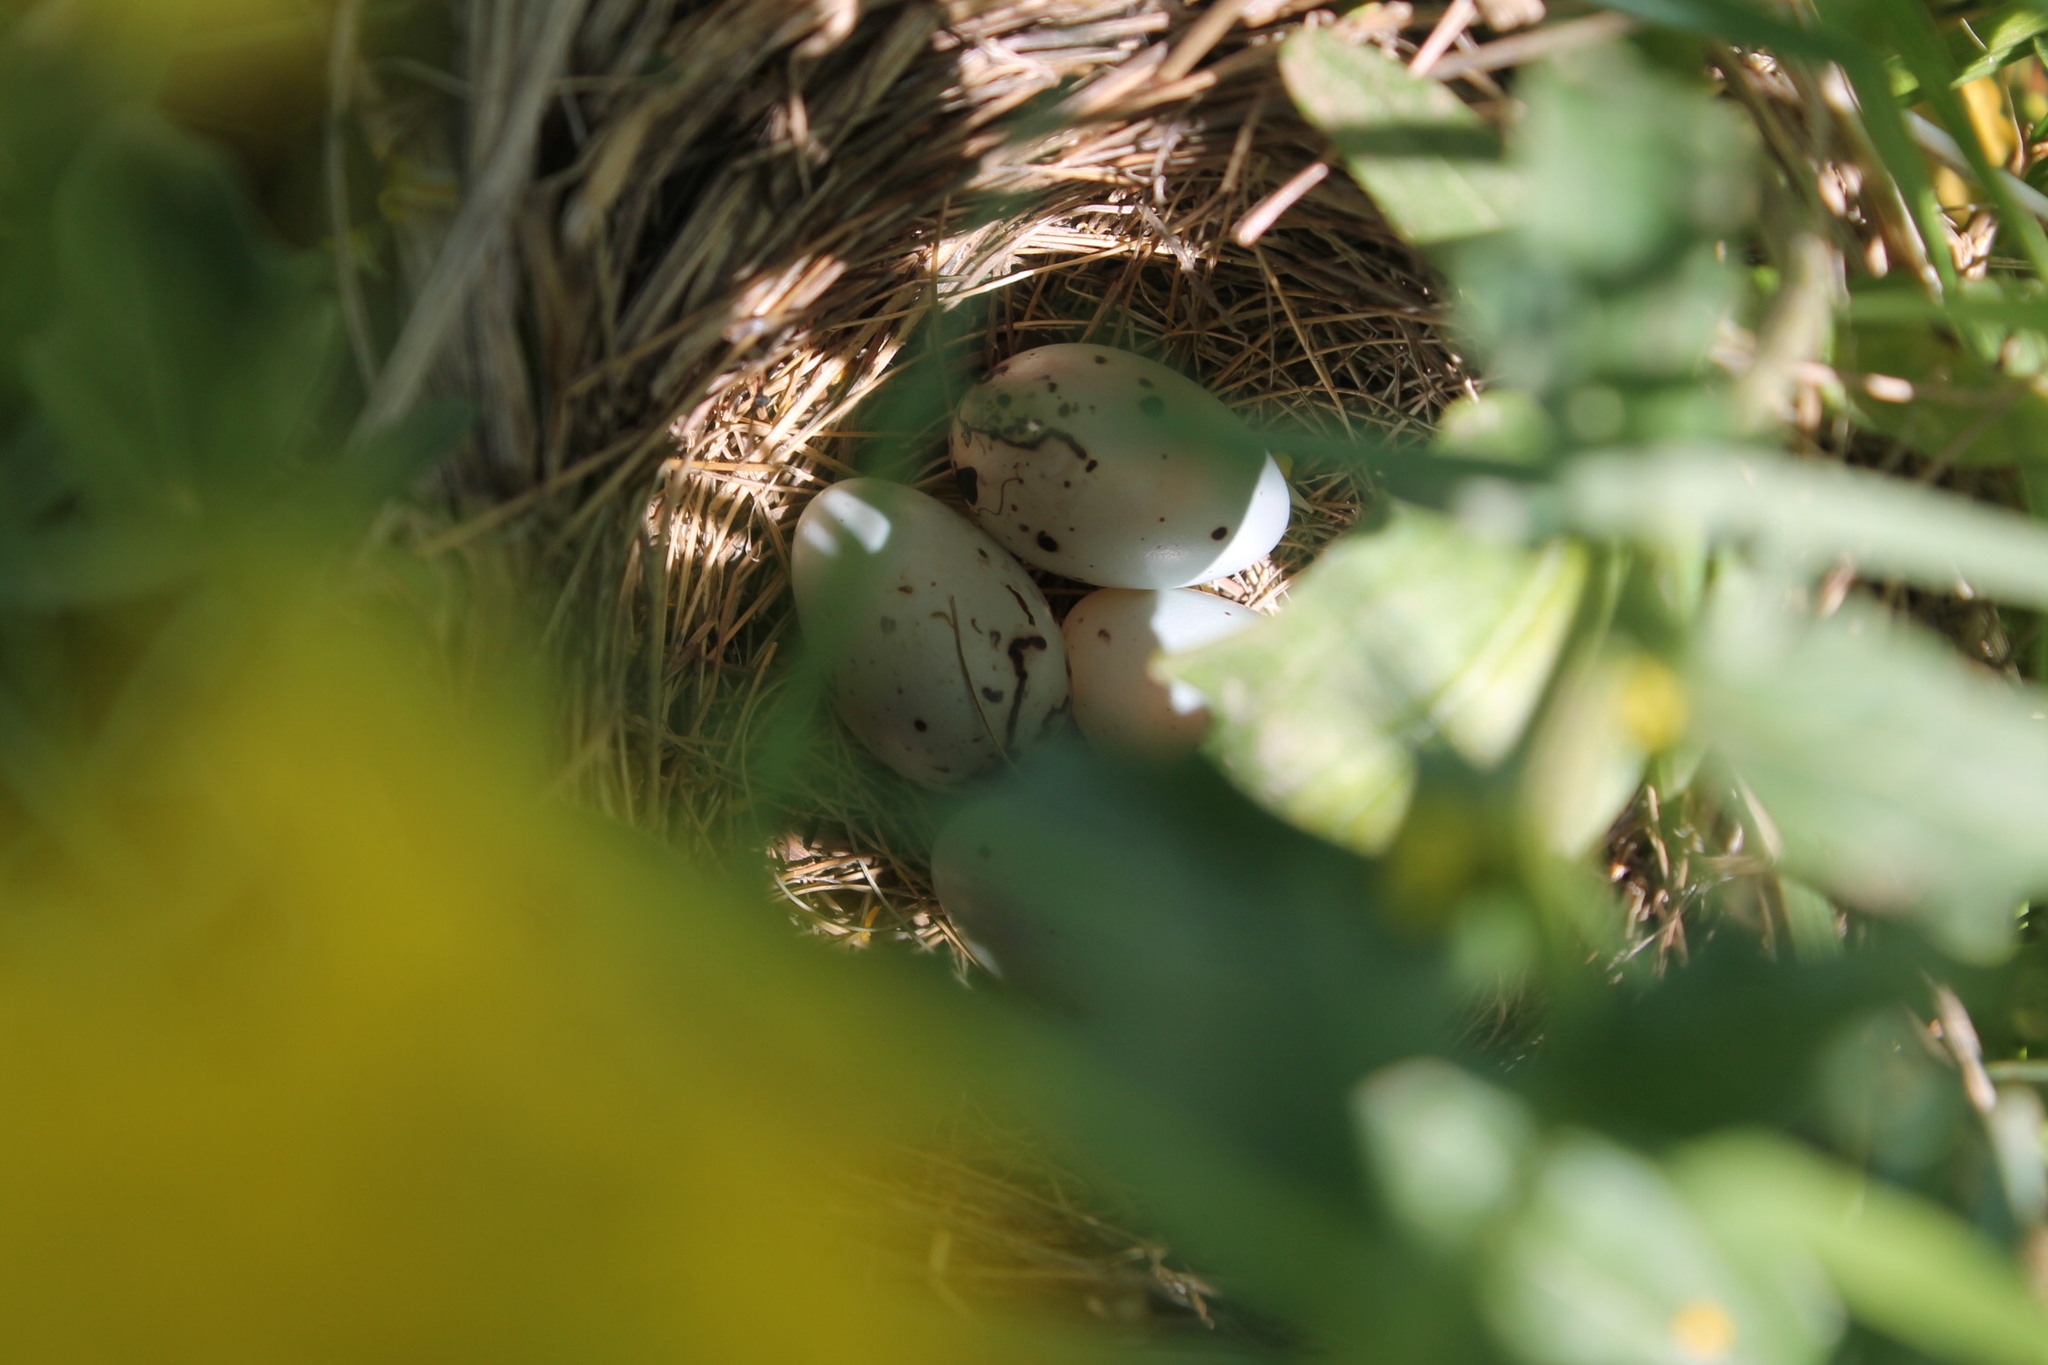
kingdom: Animalia
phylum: Chordata
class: Aves
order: Passeriformes
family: Icteridae
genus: Agelaius
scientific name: Agelaius phoeniceus
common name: Red-winged blackbird
